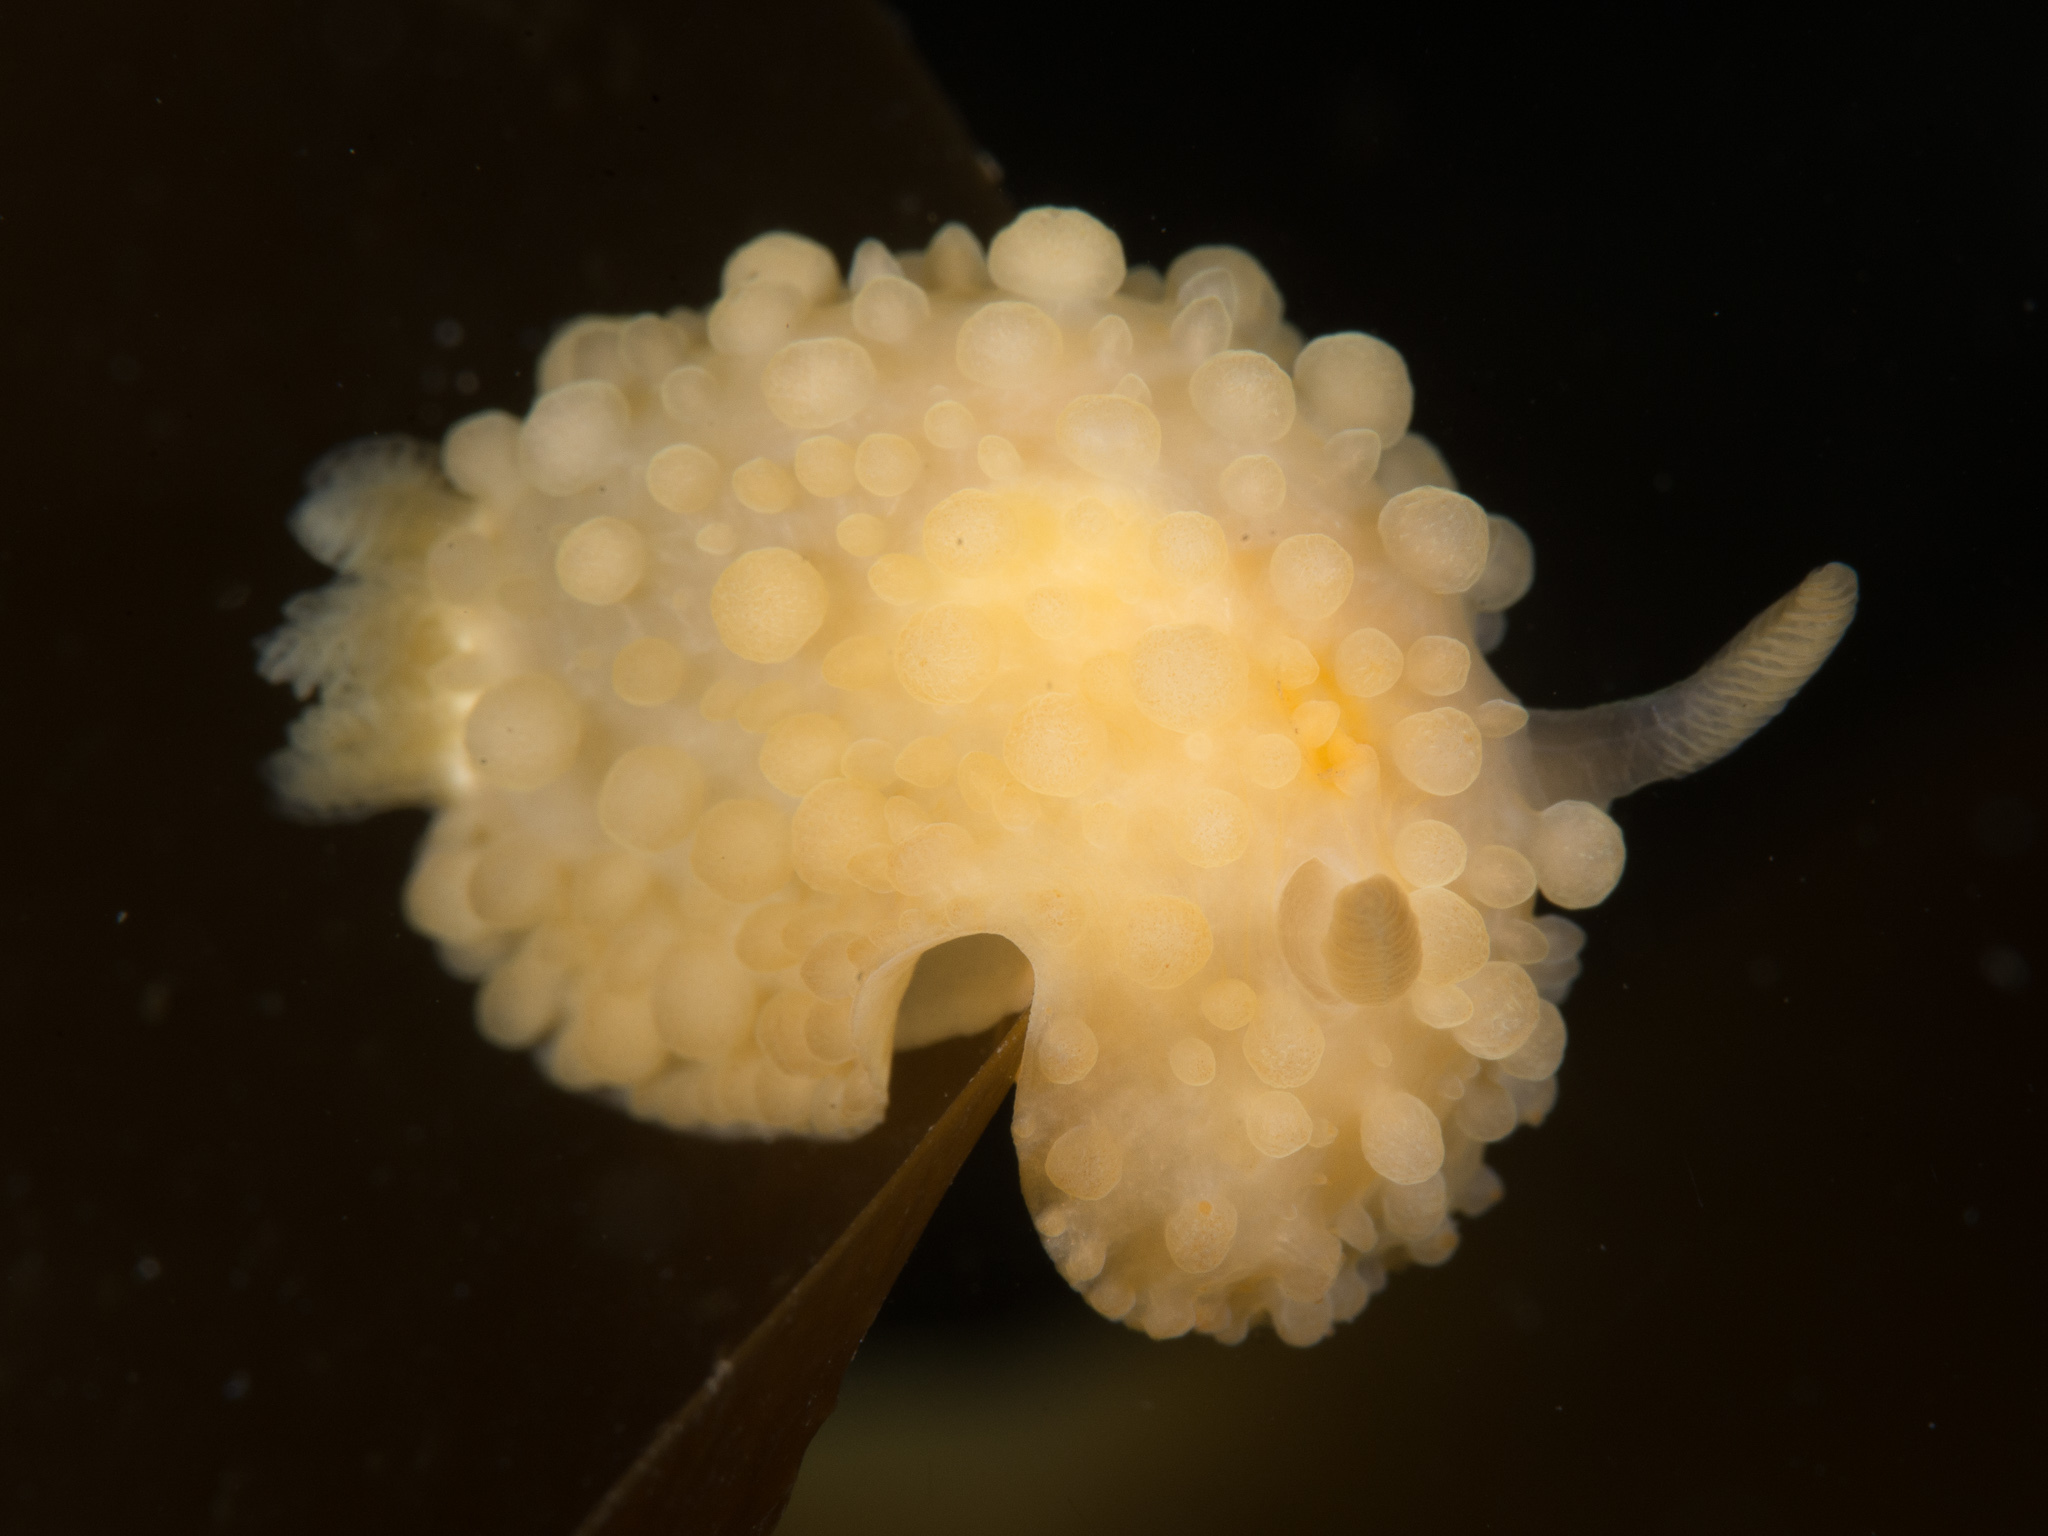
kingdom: Animalia
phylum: Mollusca
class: Gastropoda
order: Nudibranchia
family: Onchidorididae
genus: Adalaria
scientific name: Adalaria loveni
